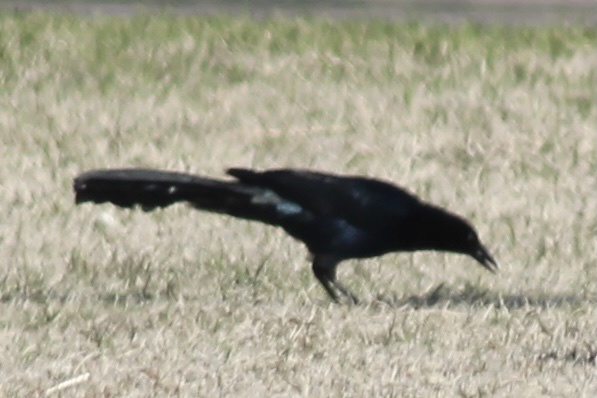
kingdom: Animalia
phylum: Chordata
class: Aves
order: Passeriformes
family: Icteridae
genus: Quiscalus
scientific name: Quiscalus mexicanus
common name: Great-tailed grackle
